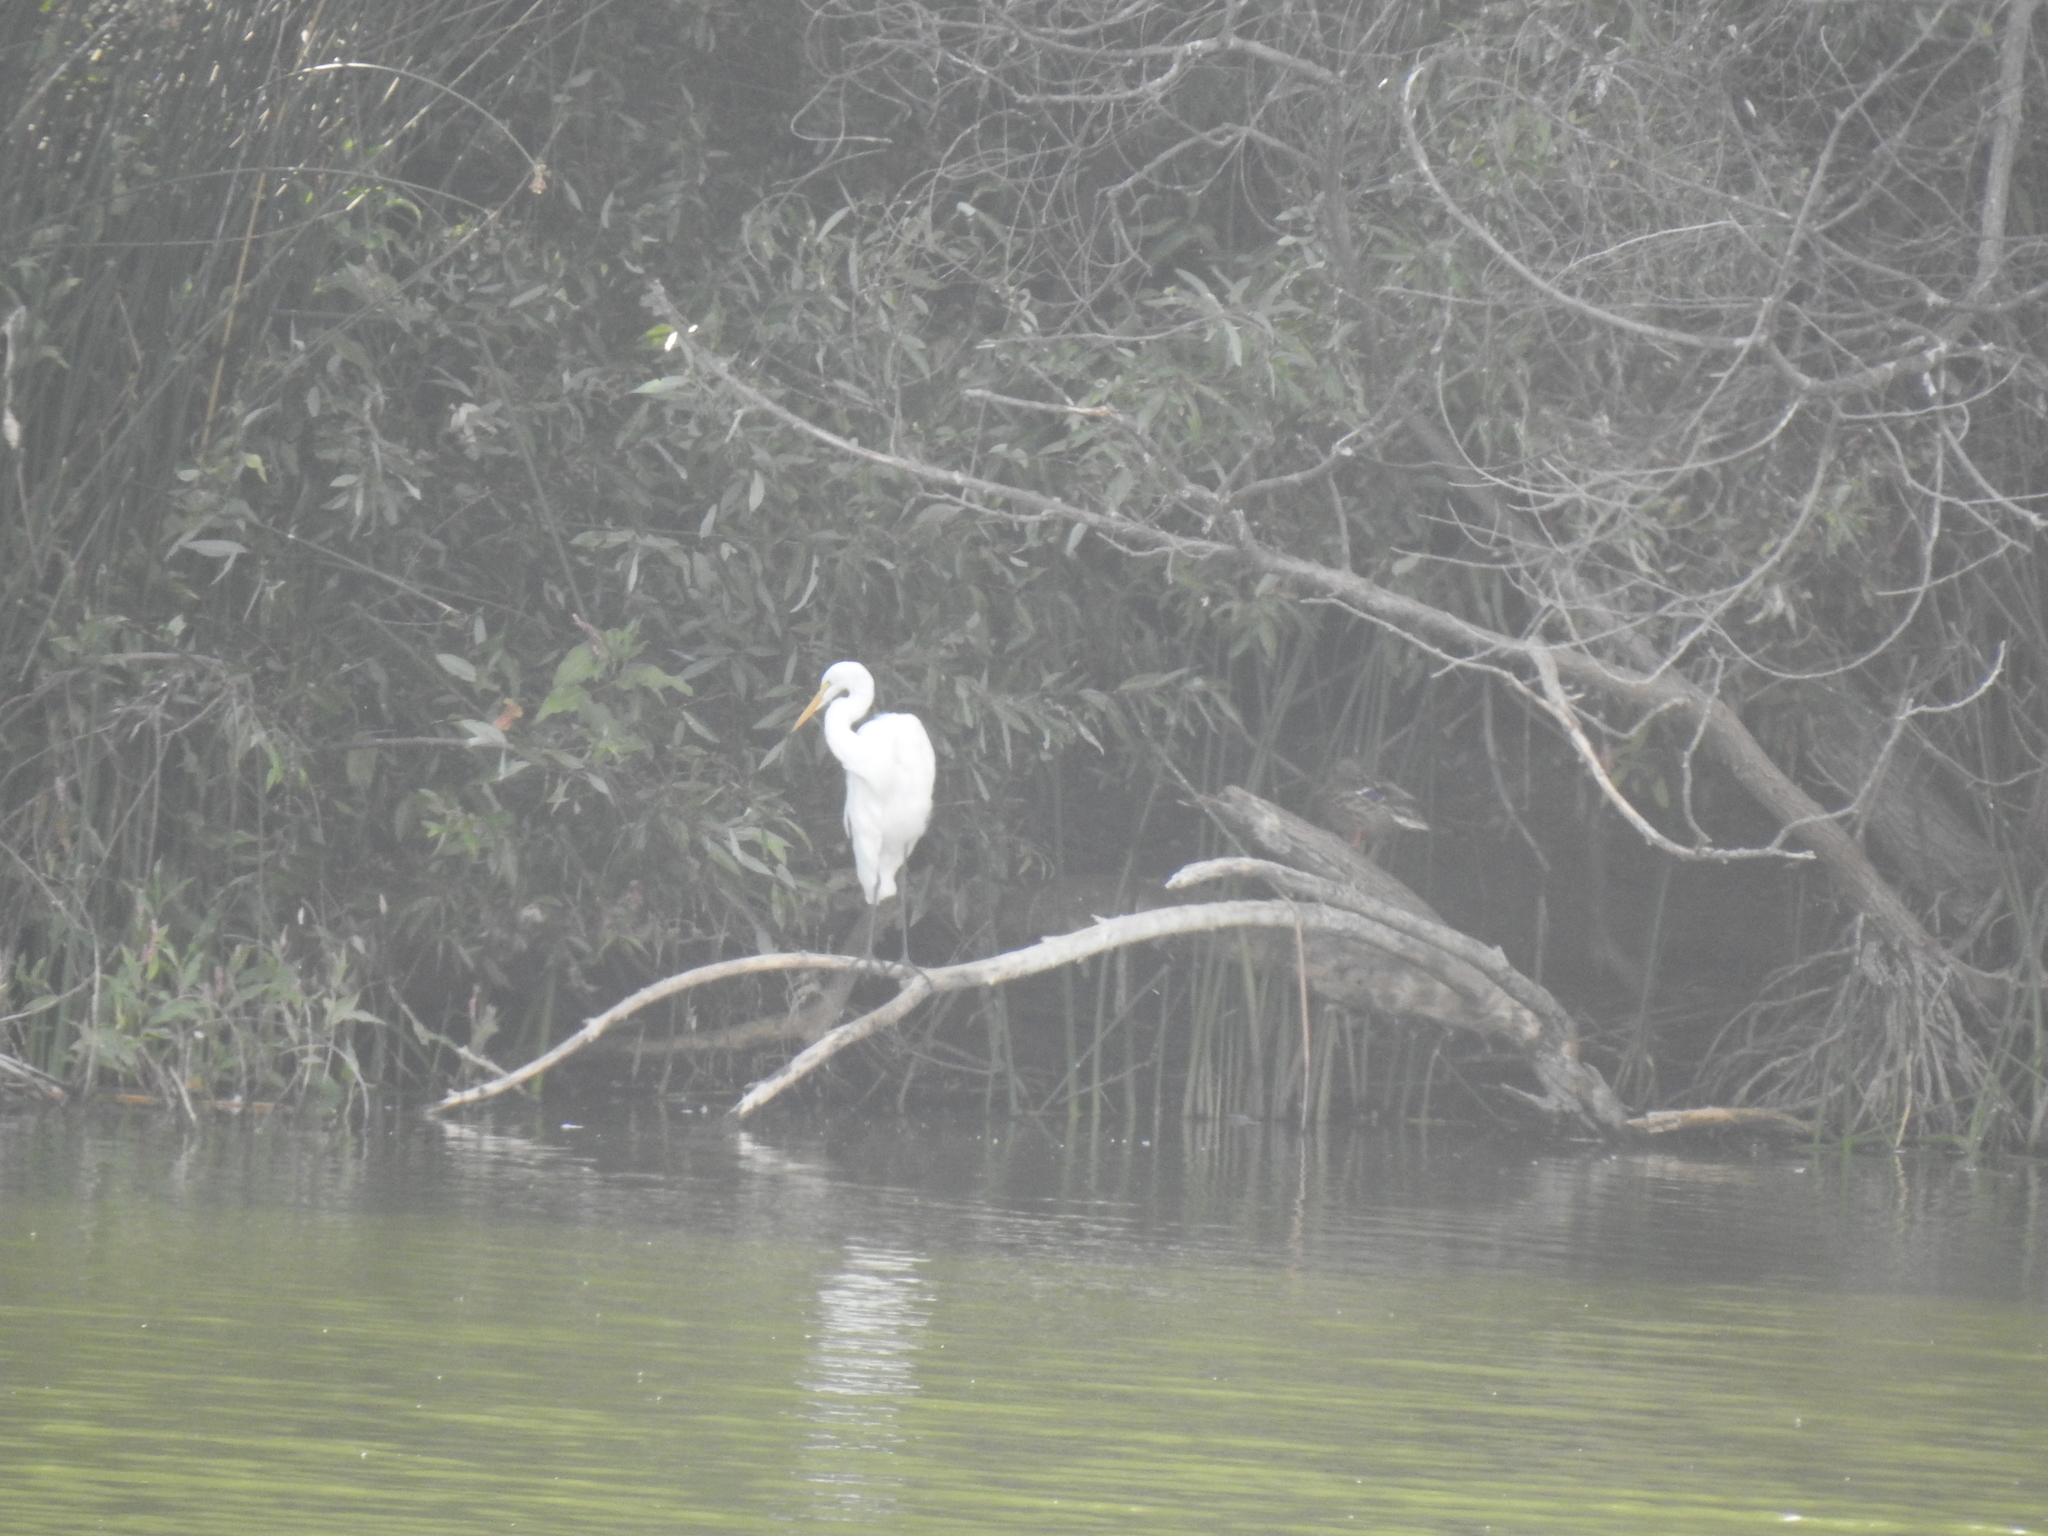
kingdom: Animalia
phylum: Chordata
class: Aves
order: Pelecaniformes
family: Ardeidae
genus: Ardea
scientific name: Ardea alba
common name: Great egret
